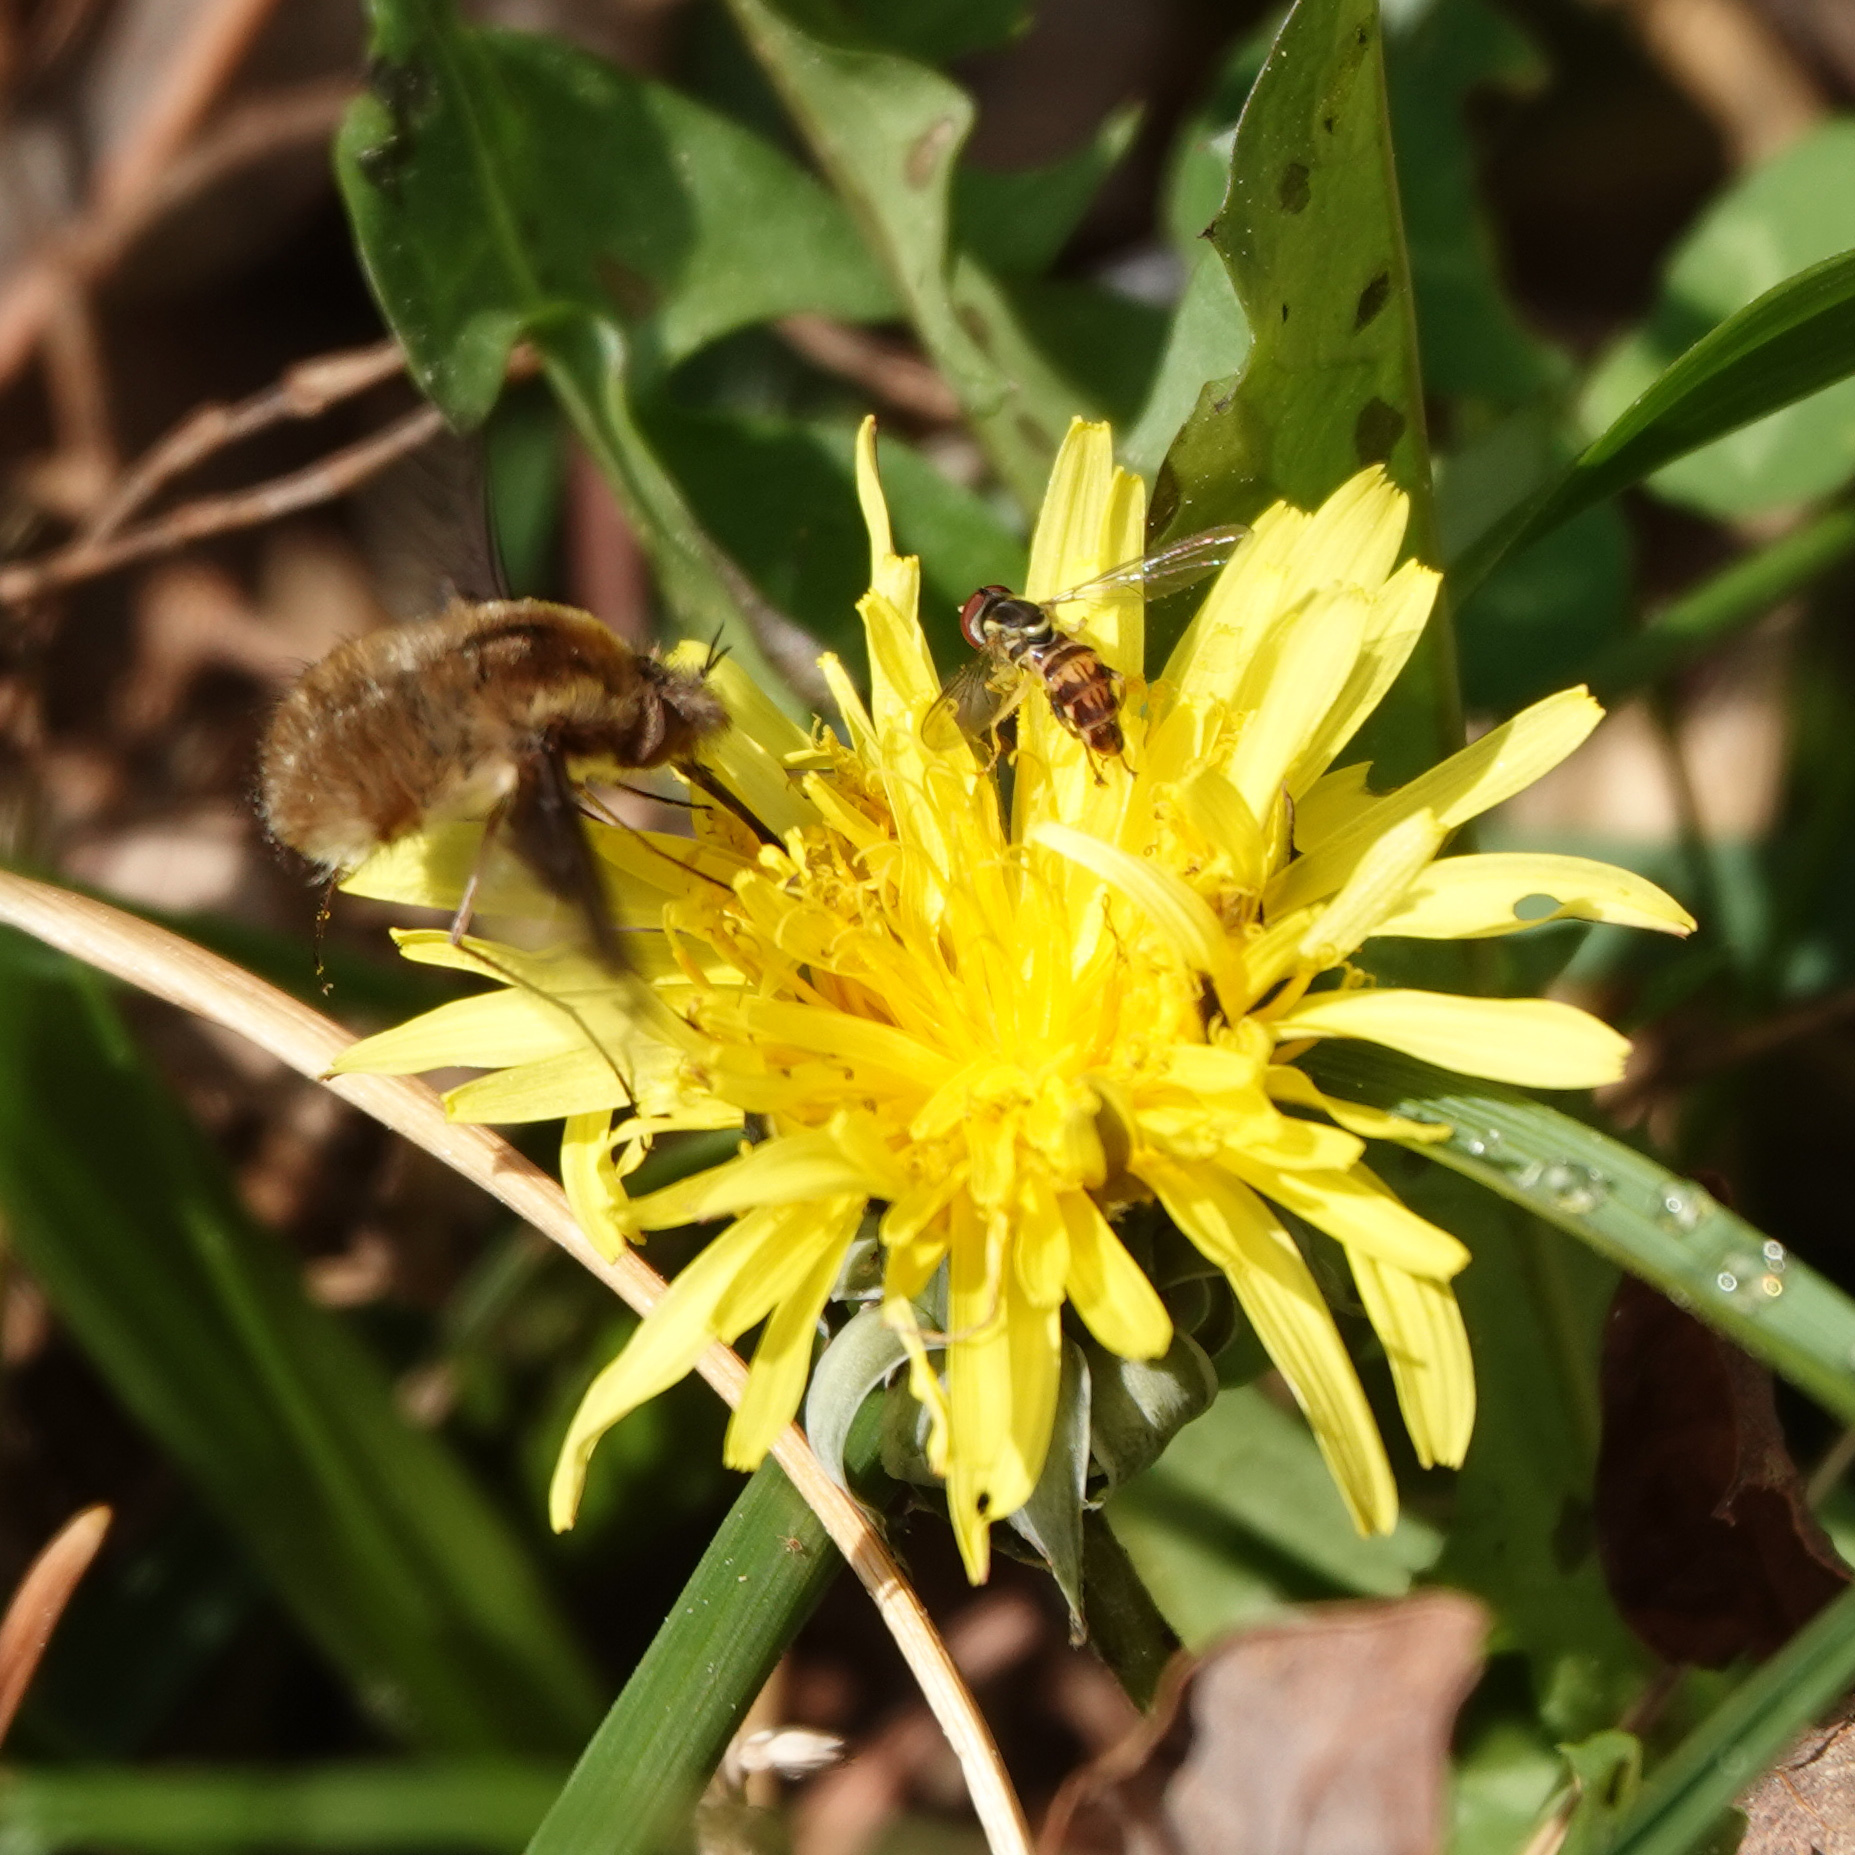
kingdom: Animalia
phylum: Arthropoda
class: Insecta
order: Diptera
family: Bombyliidae
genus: Bombylius
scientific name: Bombylius major
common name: Bee fly
